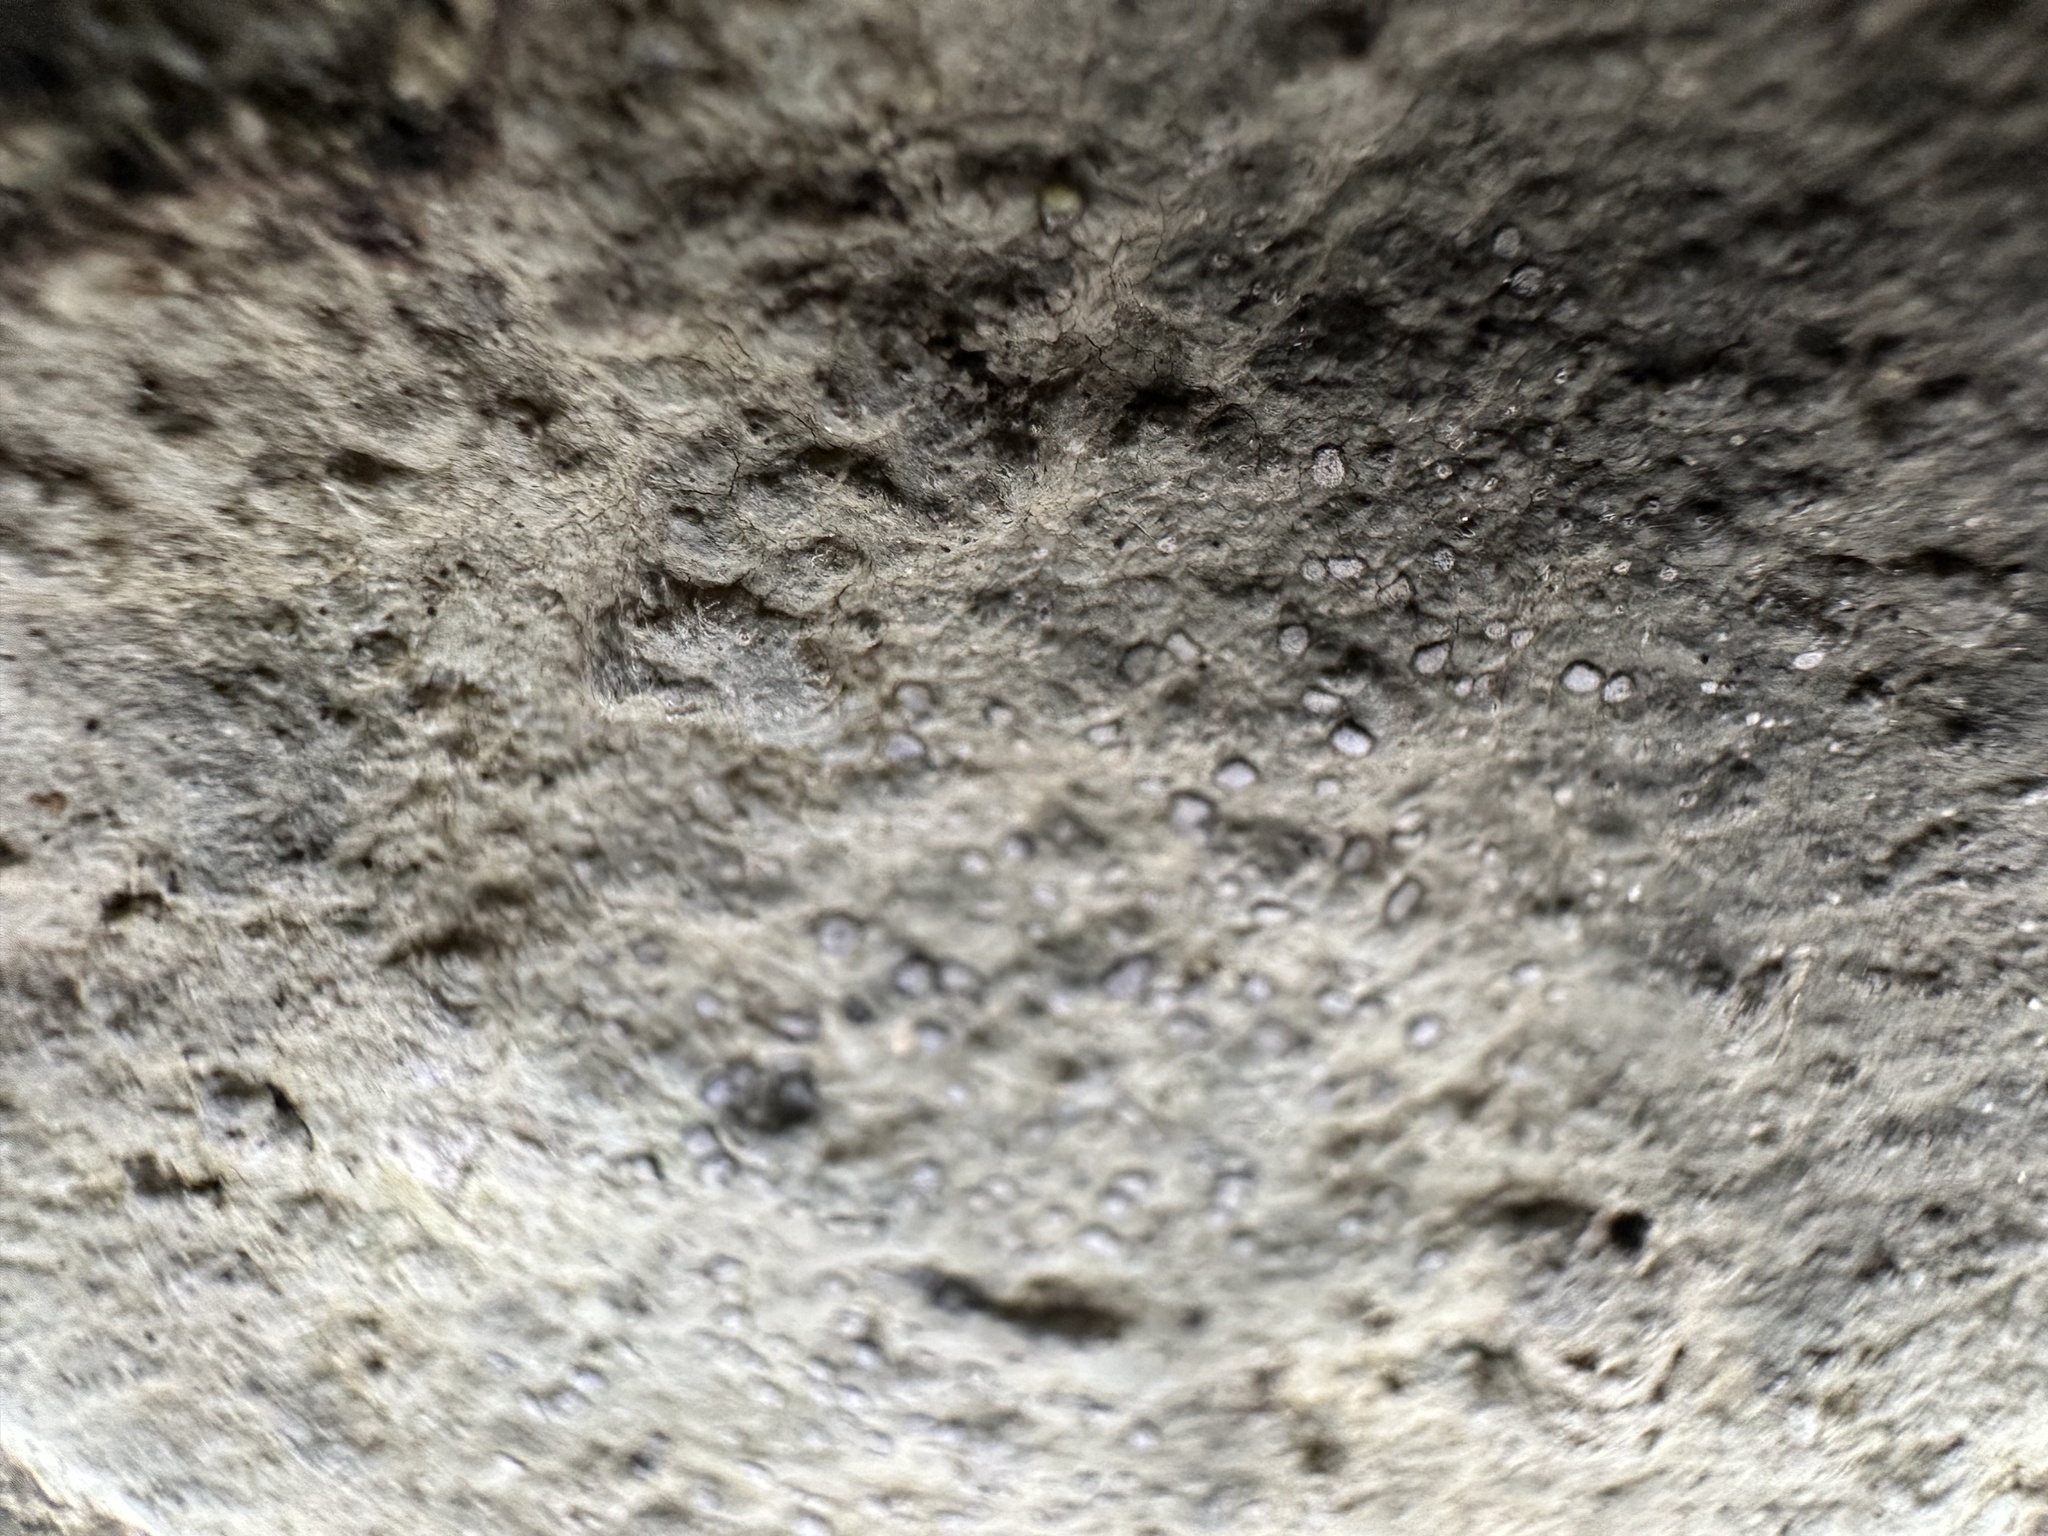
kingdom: Fungi
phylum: Ascomycota
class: Lecanoromycetes
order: Lecideales
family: Lecideaceae
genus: Porpidia
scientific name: Porpidia albocaerulescens
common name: Smokey-eyed boulder lichen
